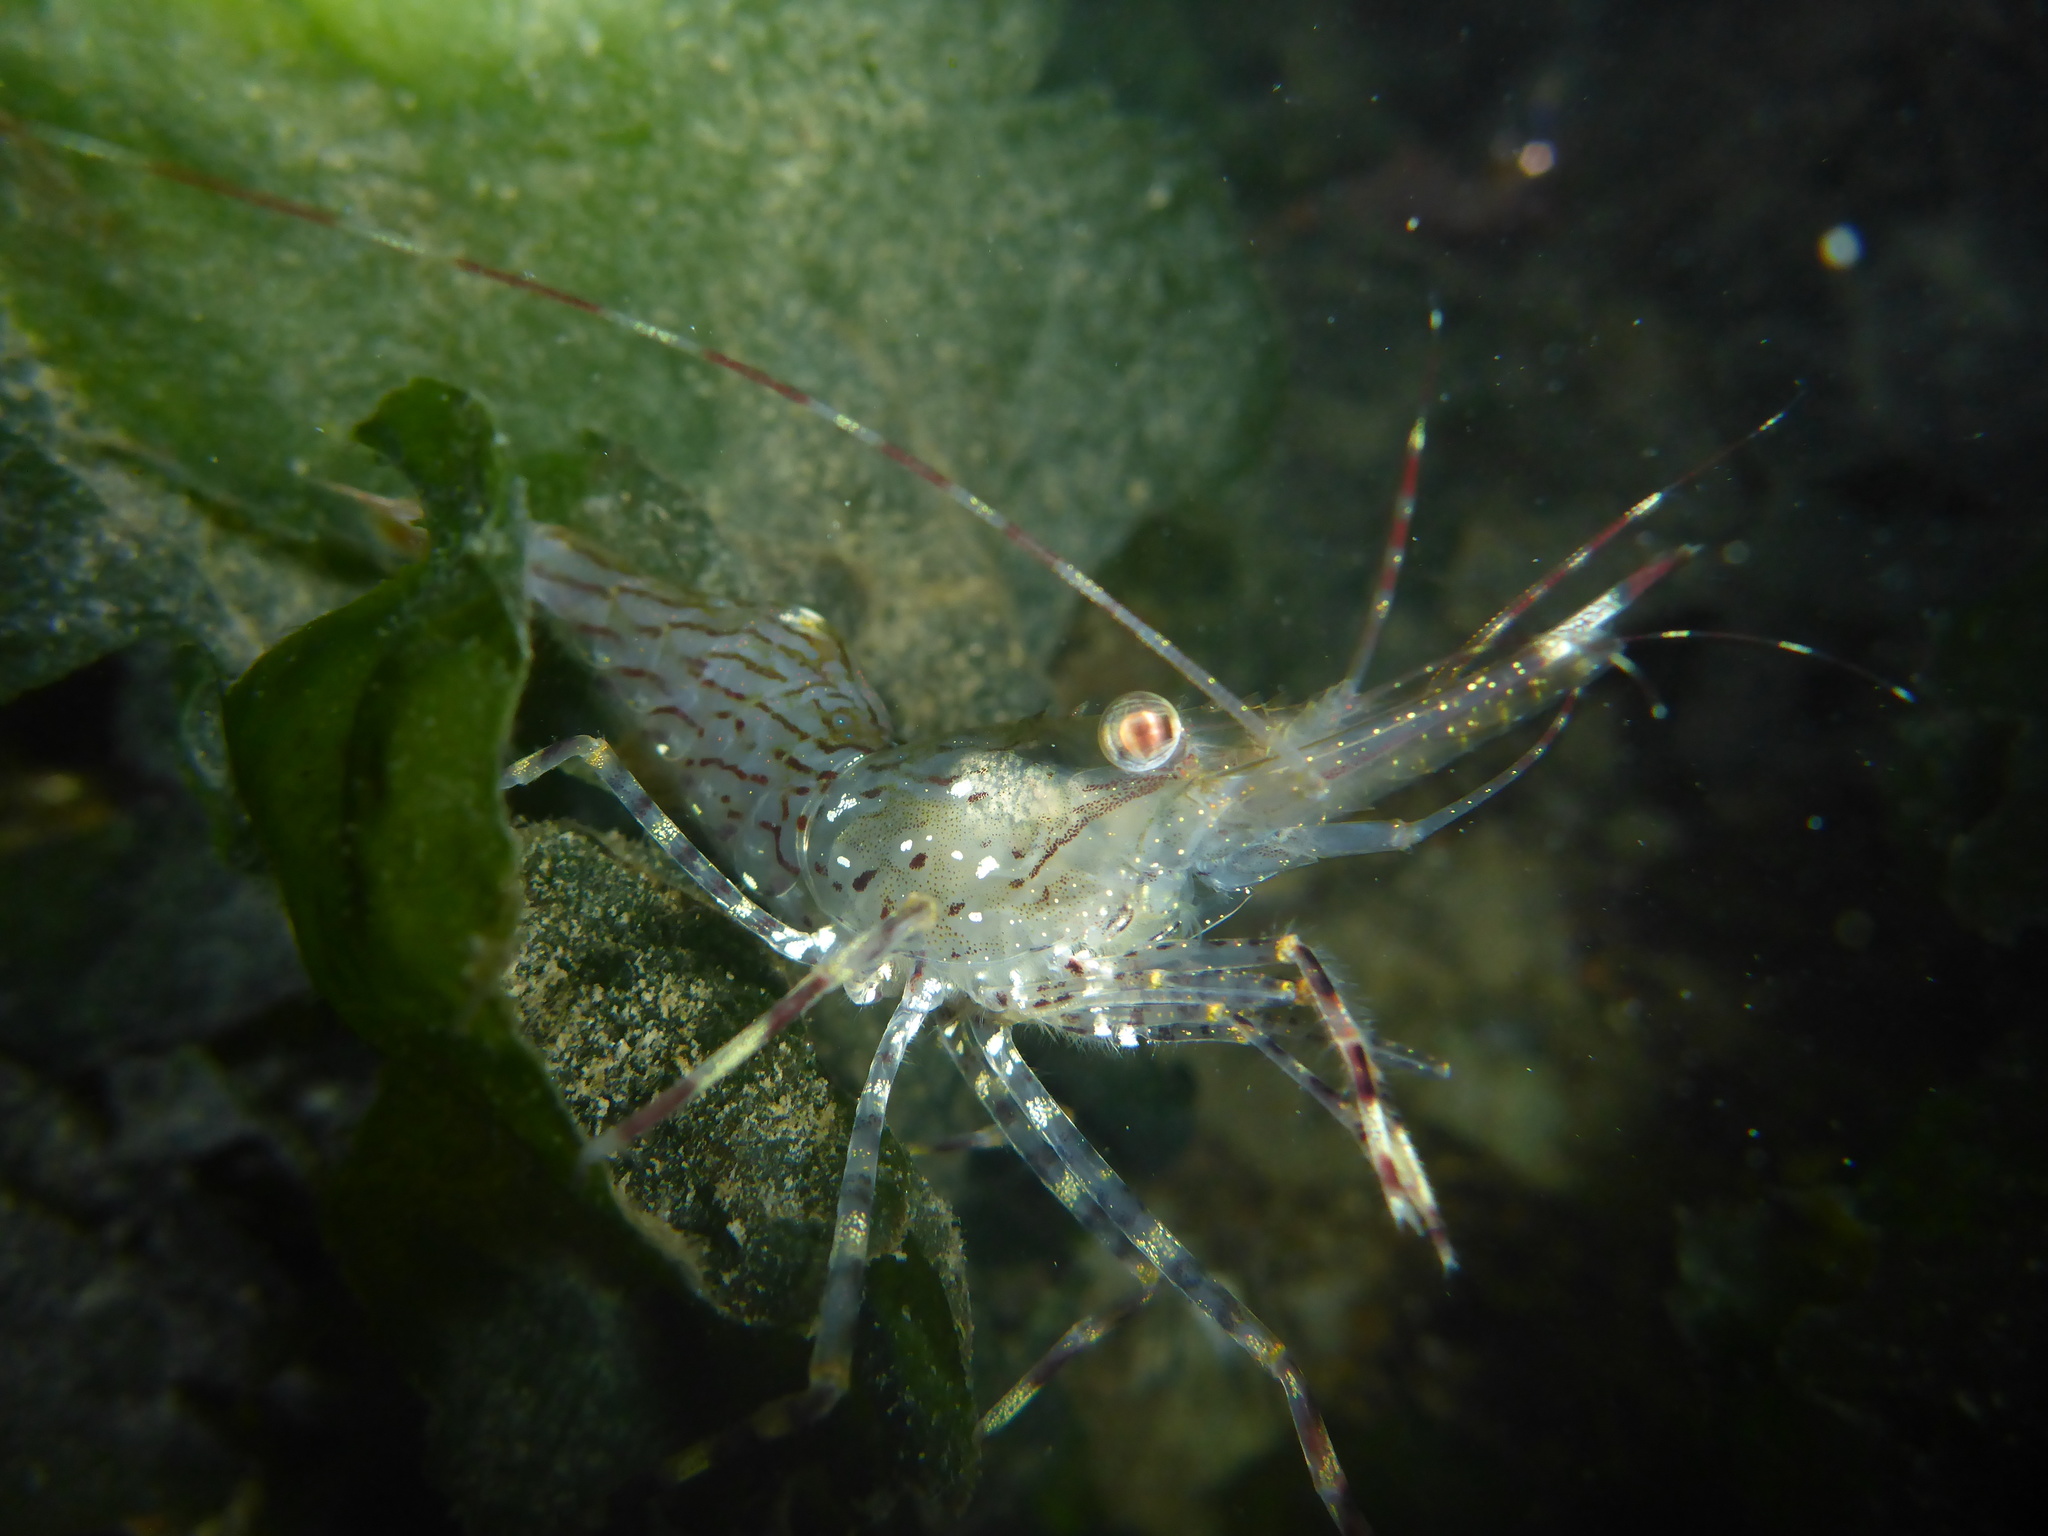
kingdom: Animalia
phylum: Arthropoda
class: Malacostraca
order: Decapoda
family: Pandalidae
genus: Pandalus
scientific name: Pandalus danae
